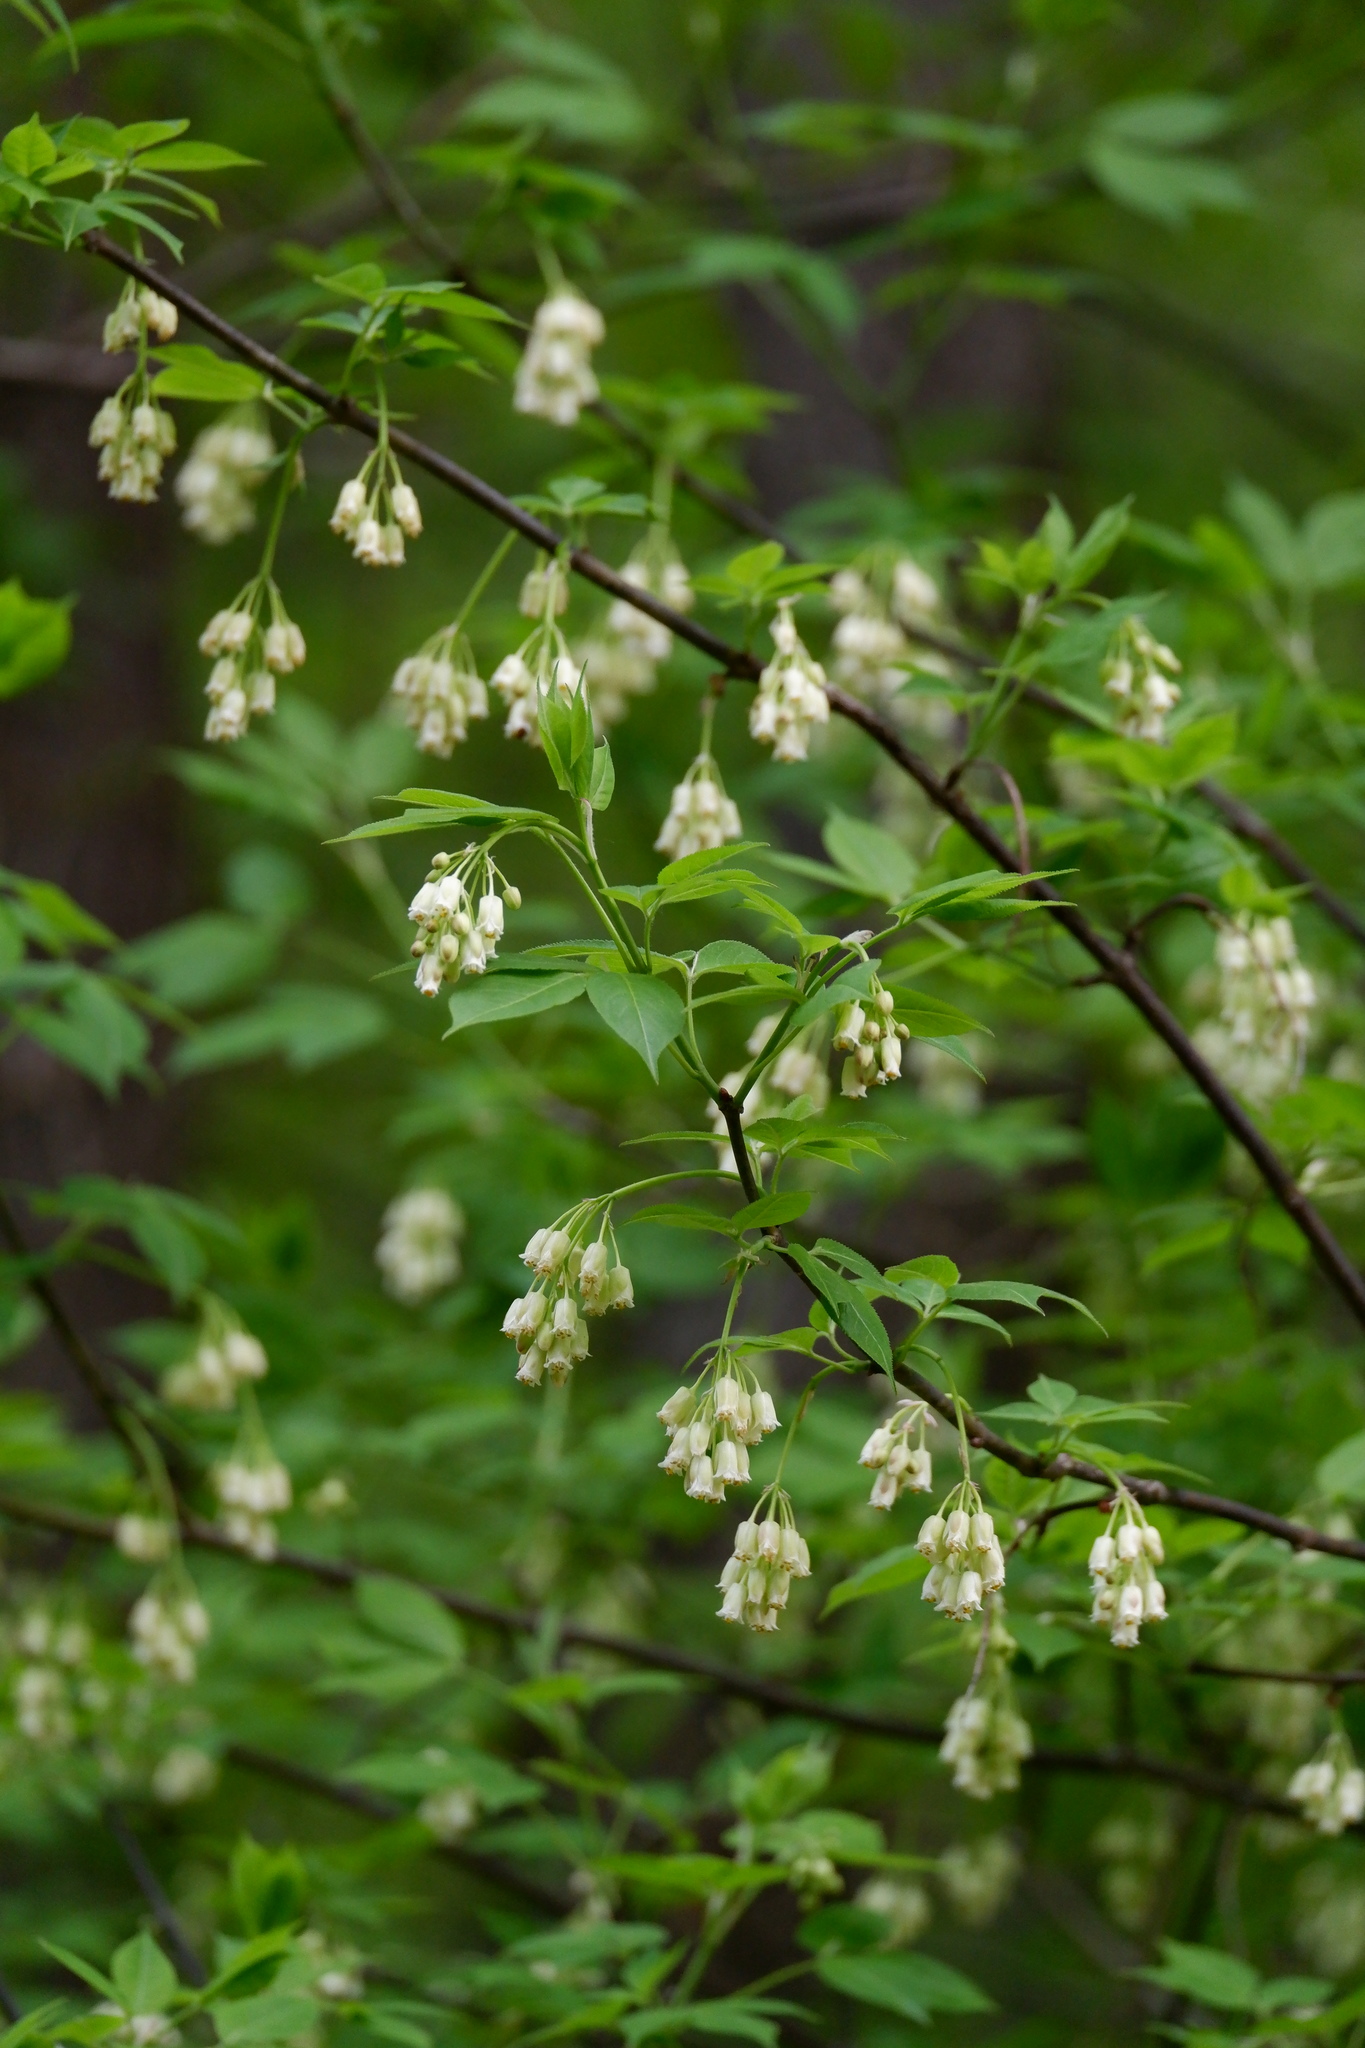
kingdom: Plantae
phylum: Tracheophyta
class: Magnoliopsida
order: Crossosomatales
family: Staphyleaceae
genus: Staphylea
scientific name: Staphylea trifolia
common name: American bladdernut
